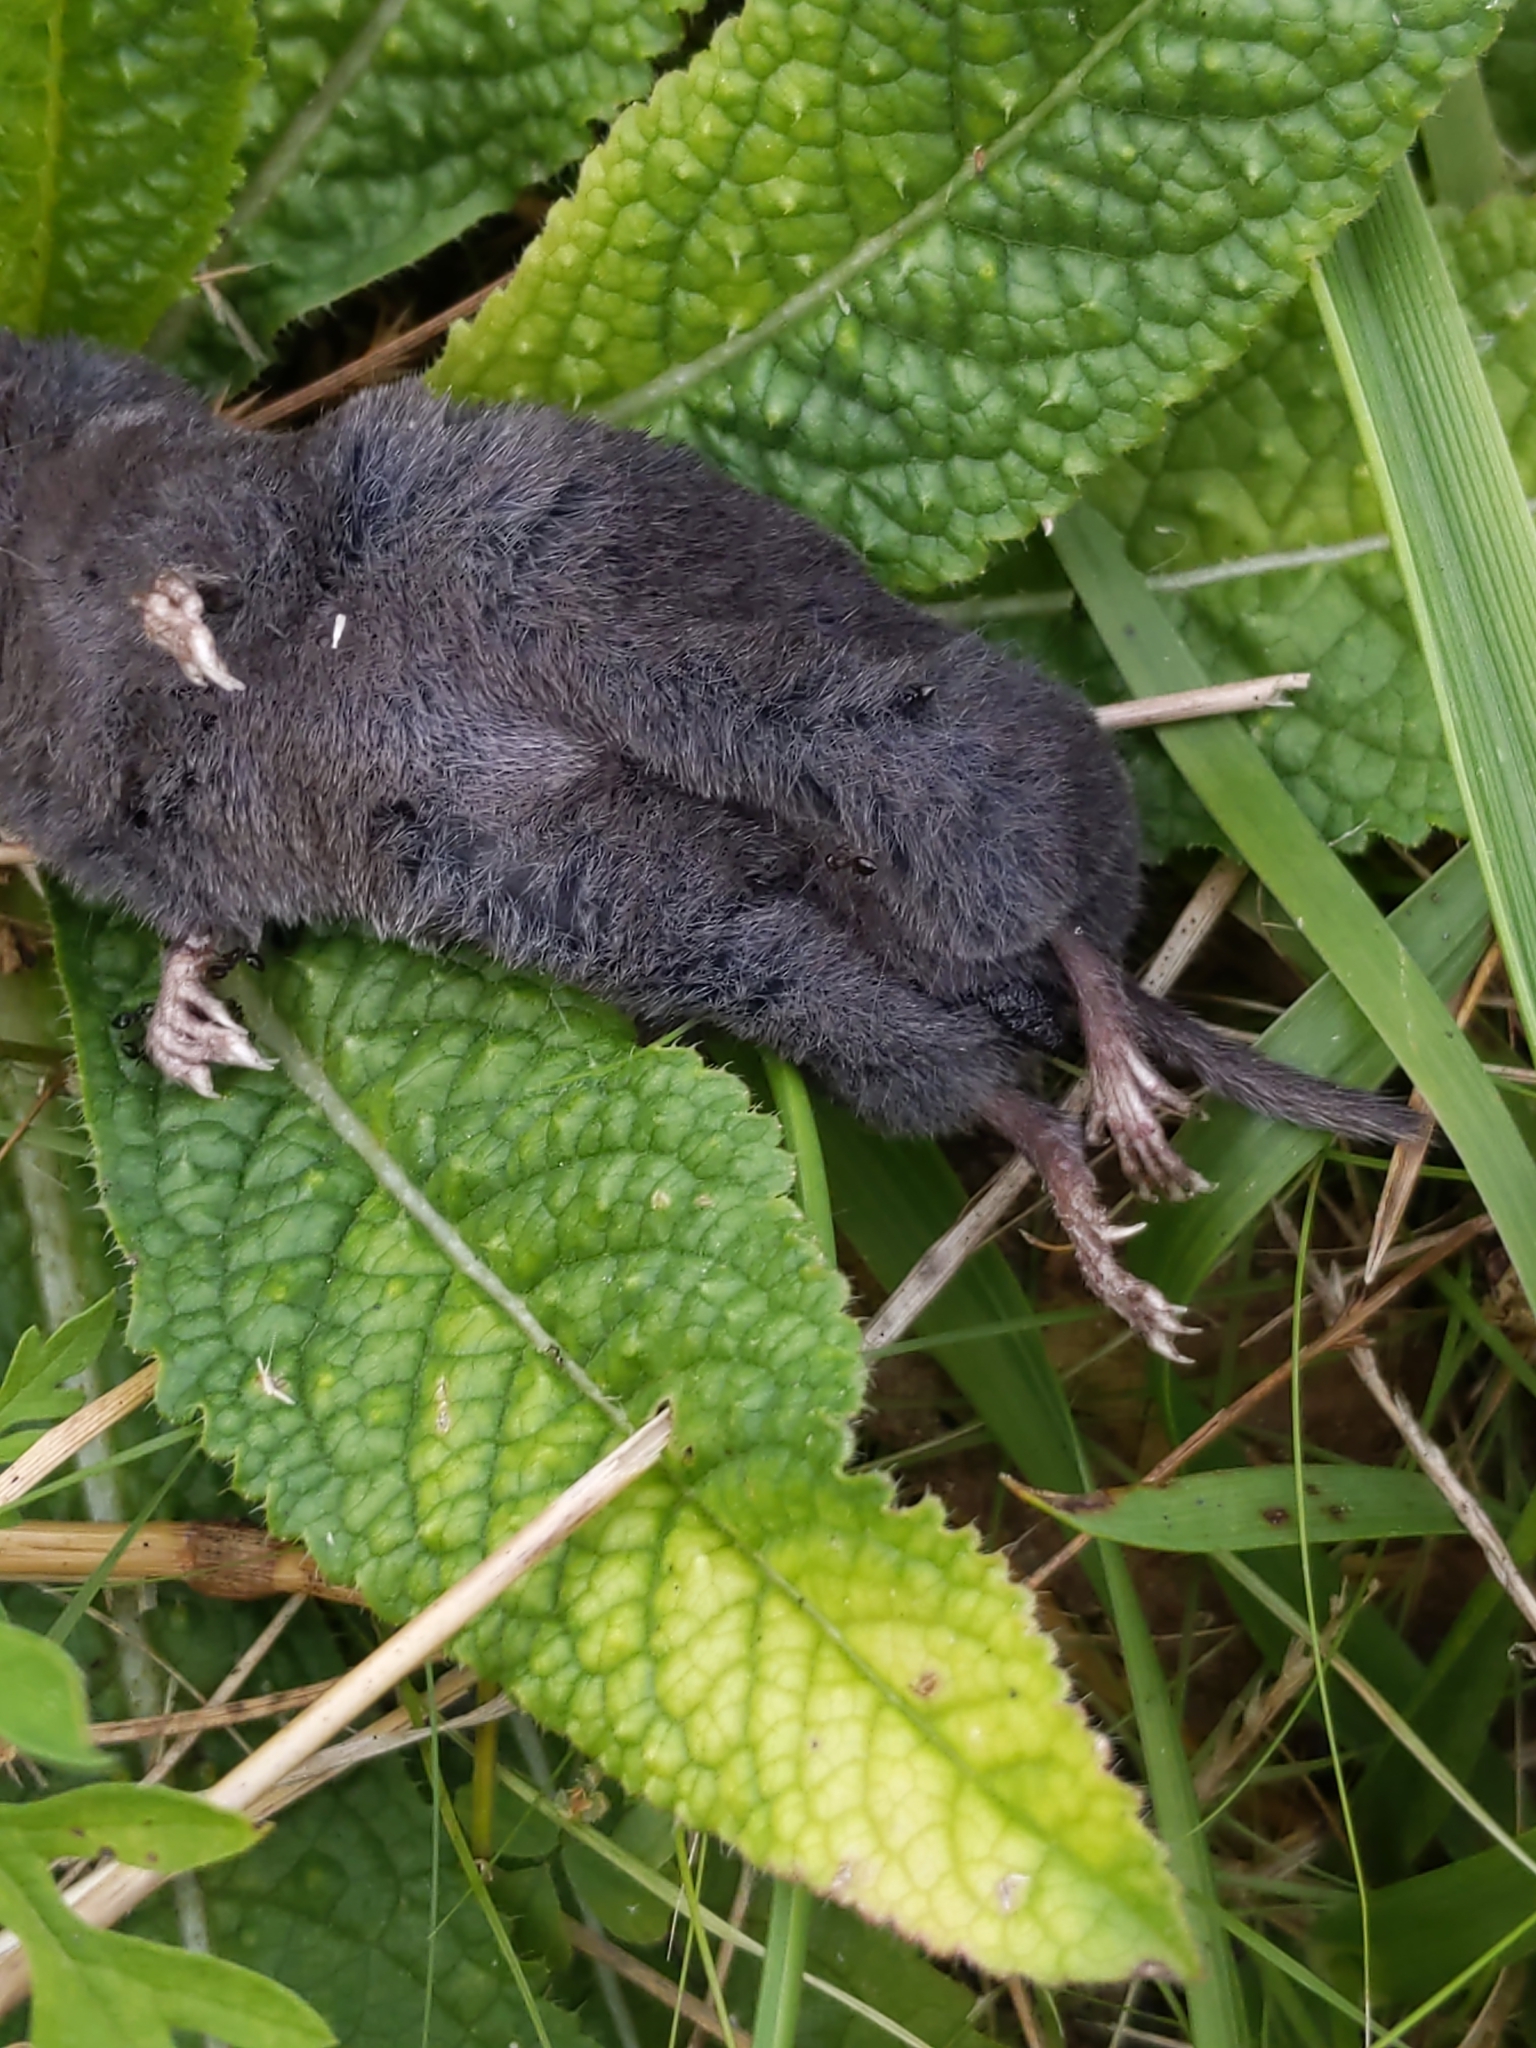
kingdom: Animalia
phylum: Chordata
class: Mammalia
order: Soricomorpha
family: Soricidae
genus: Blarina
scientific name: Blarina brevicauda
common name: Northern short-tailed shrew
